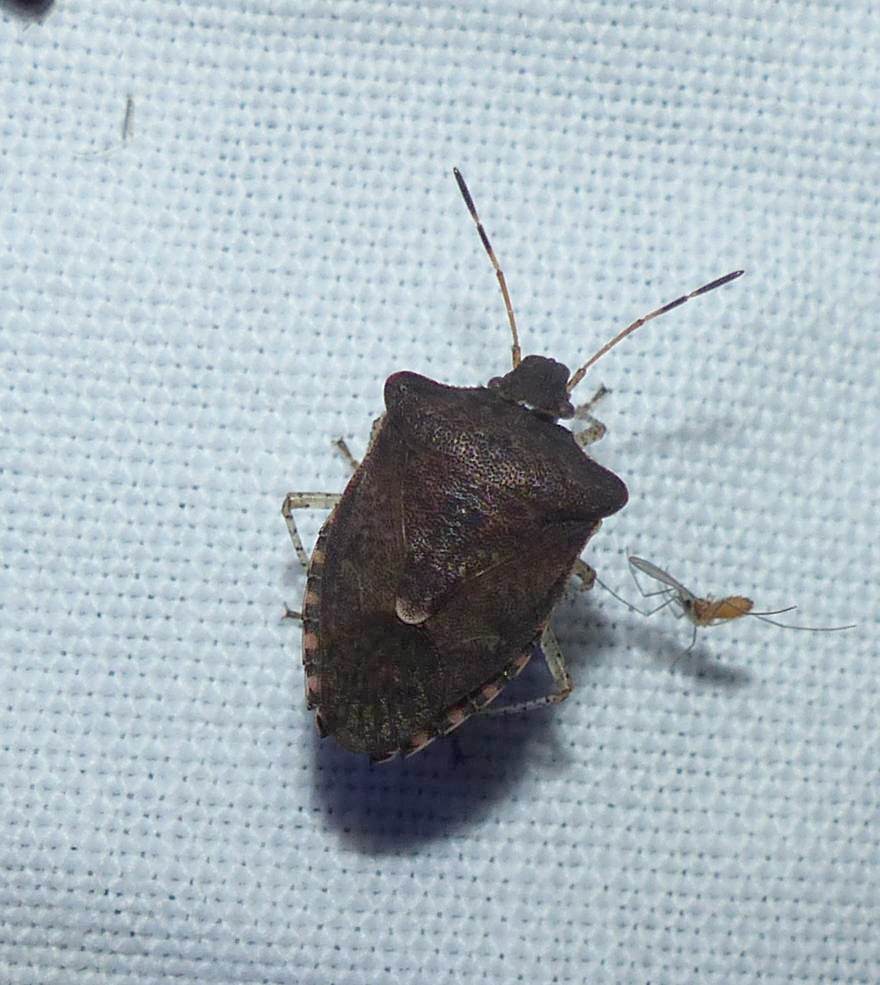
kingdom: Animalia
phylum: Arthropoda
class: Insecta
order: Hemiptera
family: Pentatomidae
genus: Euschistus
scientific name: Euschistus tristigmus
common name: Dusky stink bug
